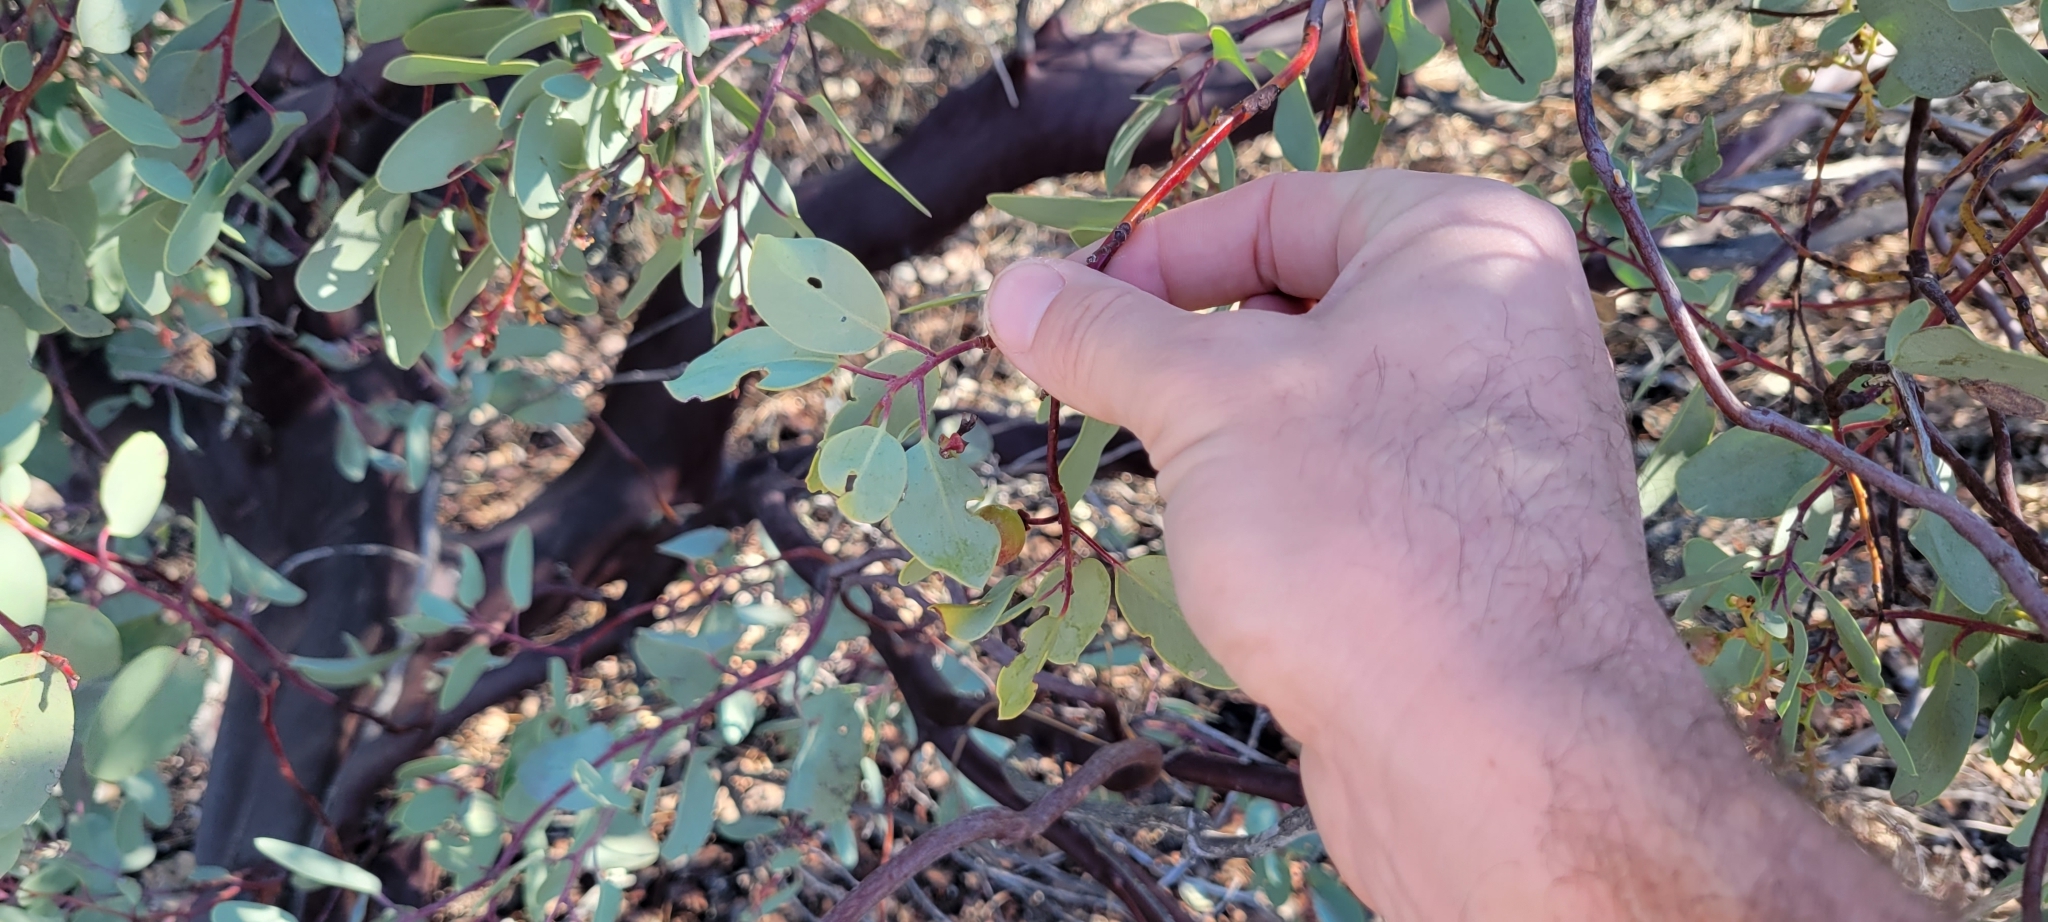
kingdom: Plantae
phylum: Tracheophyta
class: Magnoliopsida
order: Ericales
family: Ericaceae
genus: Arctostaphylos
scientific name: Arctostaphylos glauca
